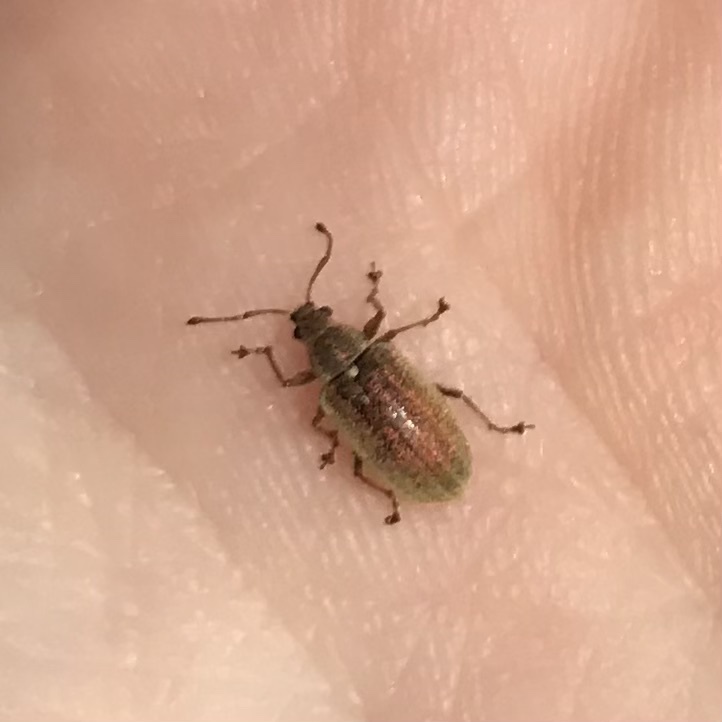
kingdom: Animalia
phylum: Arthropoda
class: Insecta
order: Coleoptera
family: Curculionidae
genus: Phyllobius
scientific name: Phyllobius pyri
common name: Common leaf weevil
